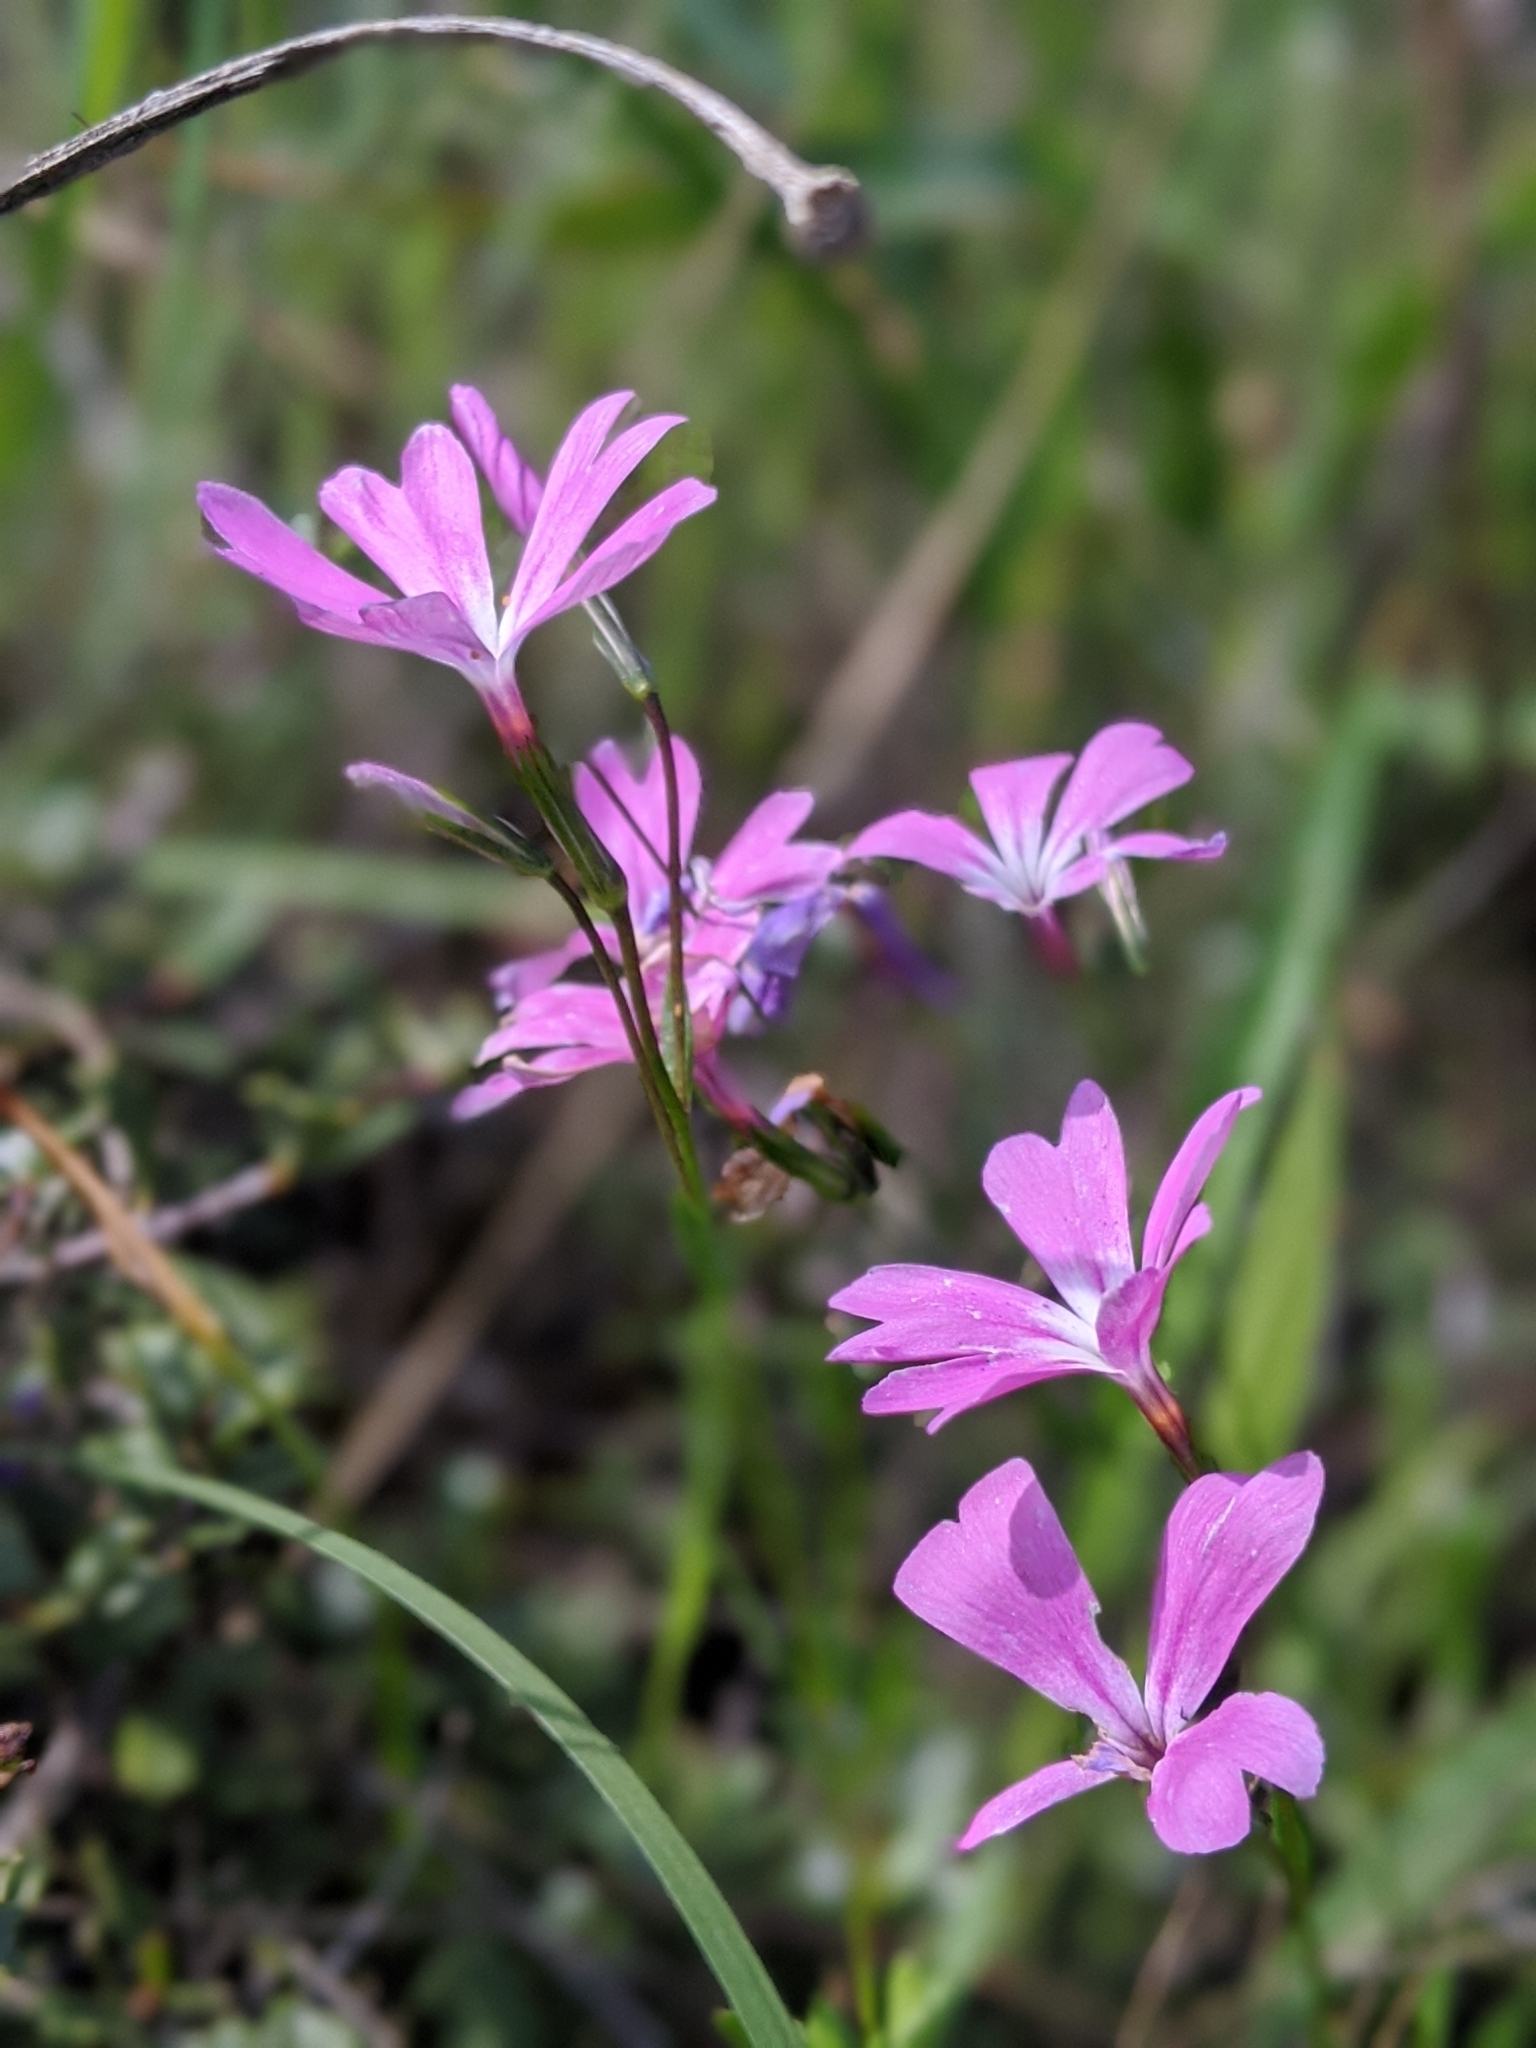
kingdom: Plantae
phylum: Tracheophyta
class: Magnoliopsida
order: Ericales
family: Polemoniaceae
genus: Phlox
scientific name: Phlox speciosa
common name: Bush phlox
